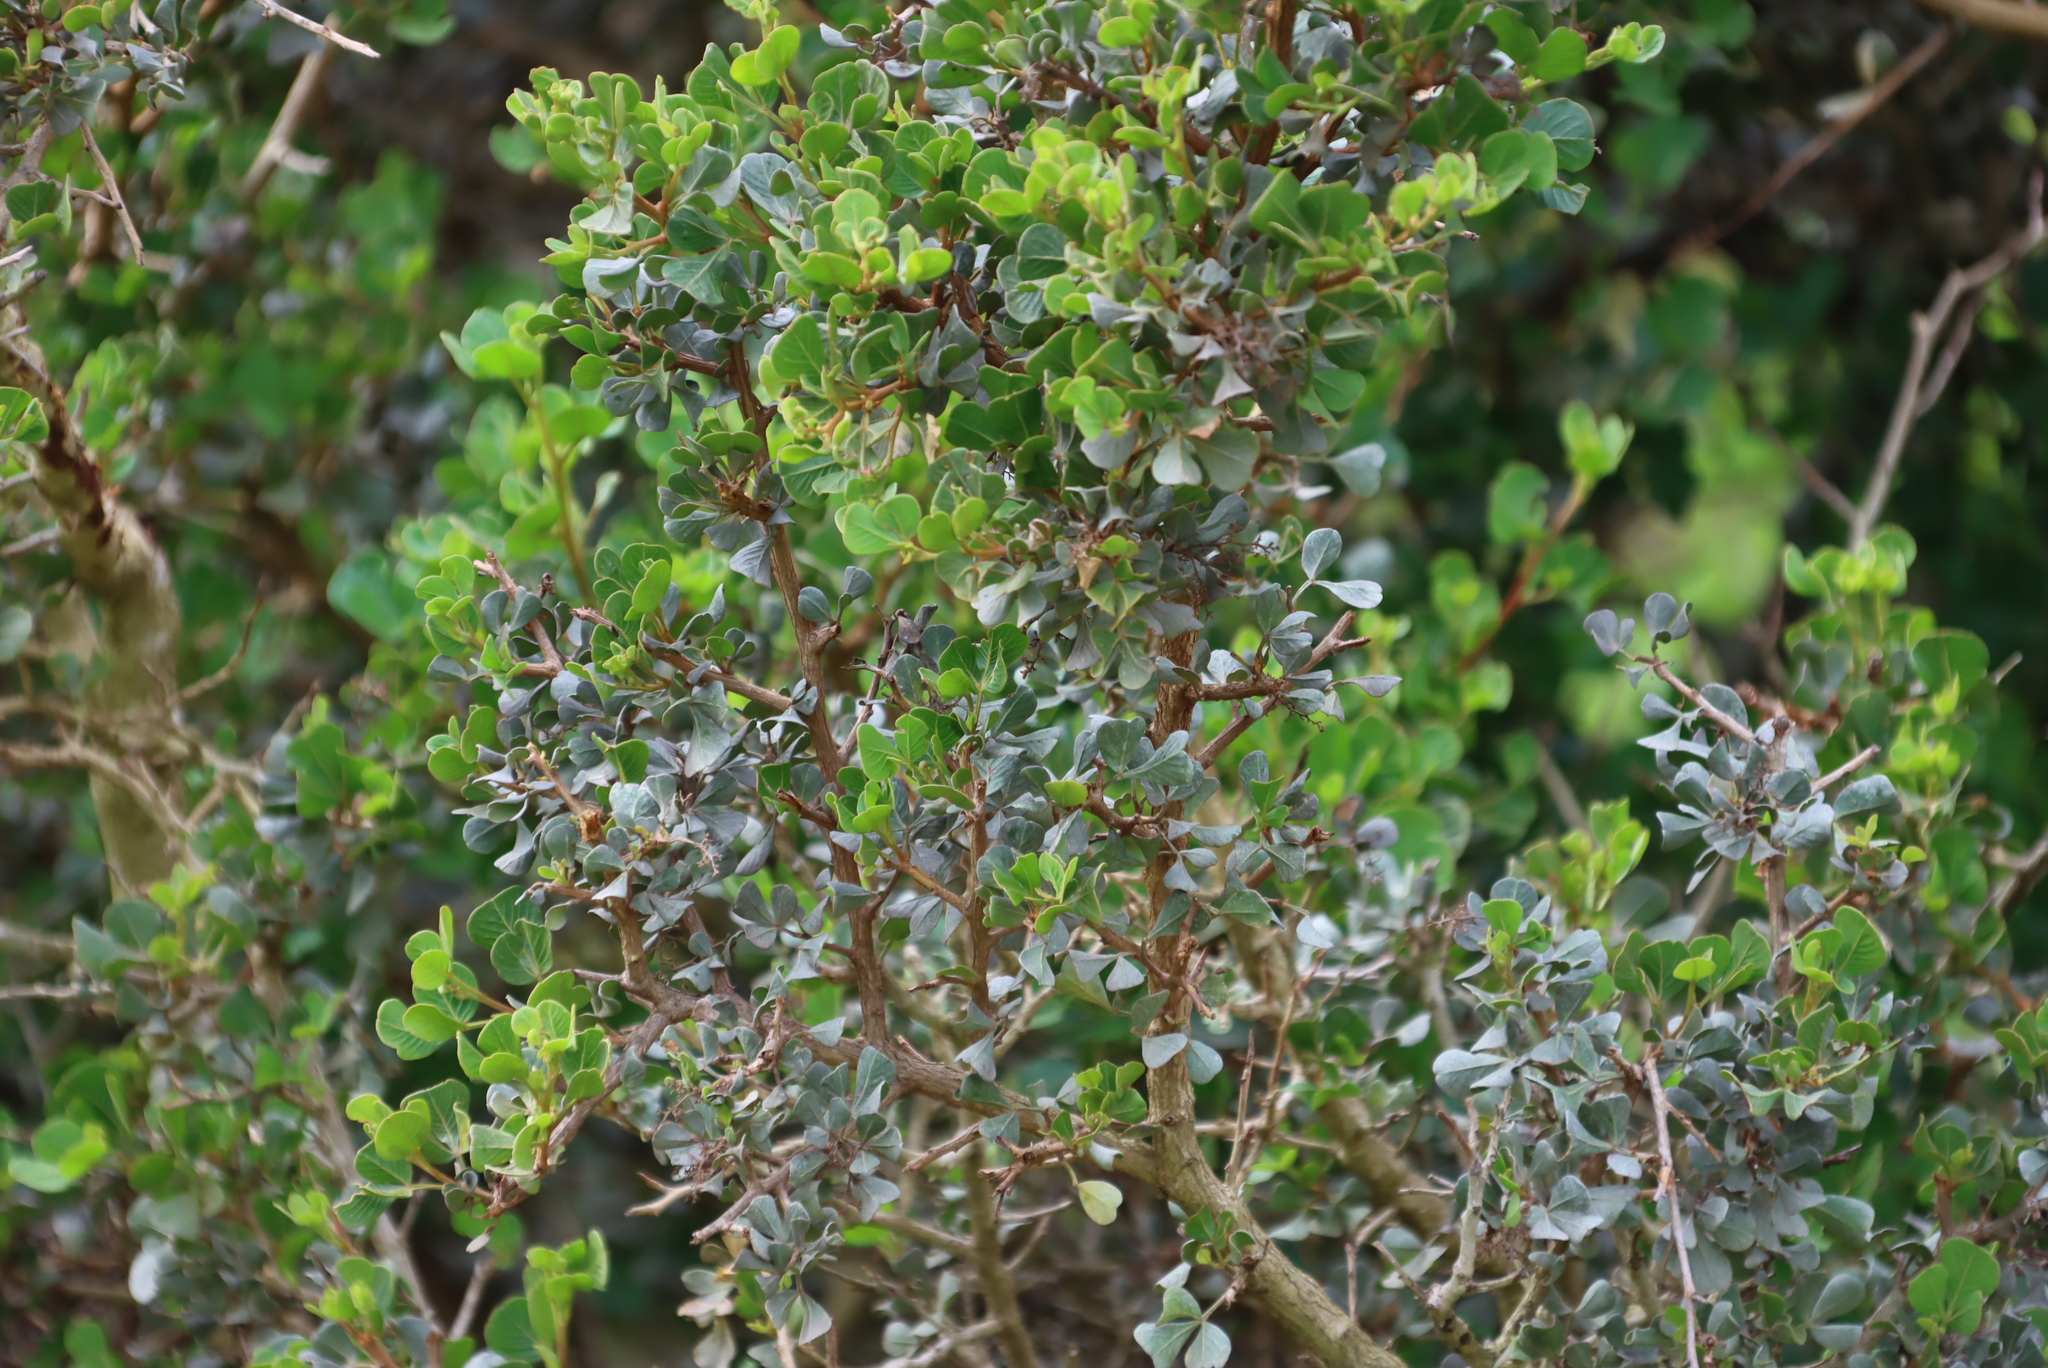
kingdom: Plantae
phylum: Tracheophyta
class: Magnoliopsida
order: Sapindales
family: Anacardiaceae
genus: Searsia
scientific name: Searsia glauca
